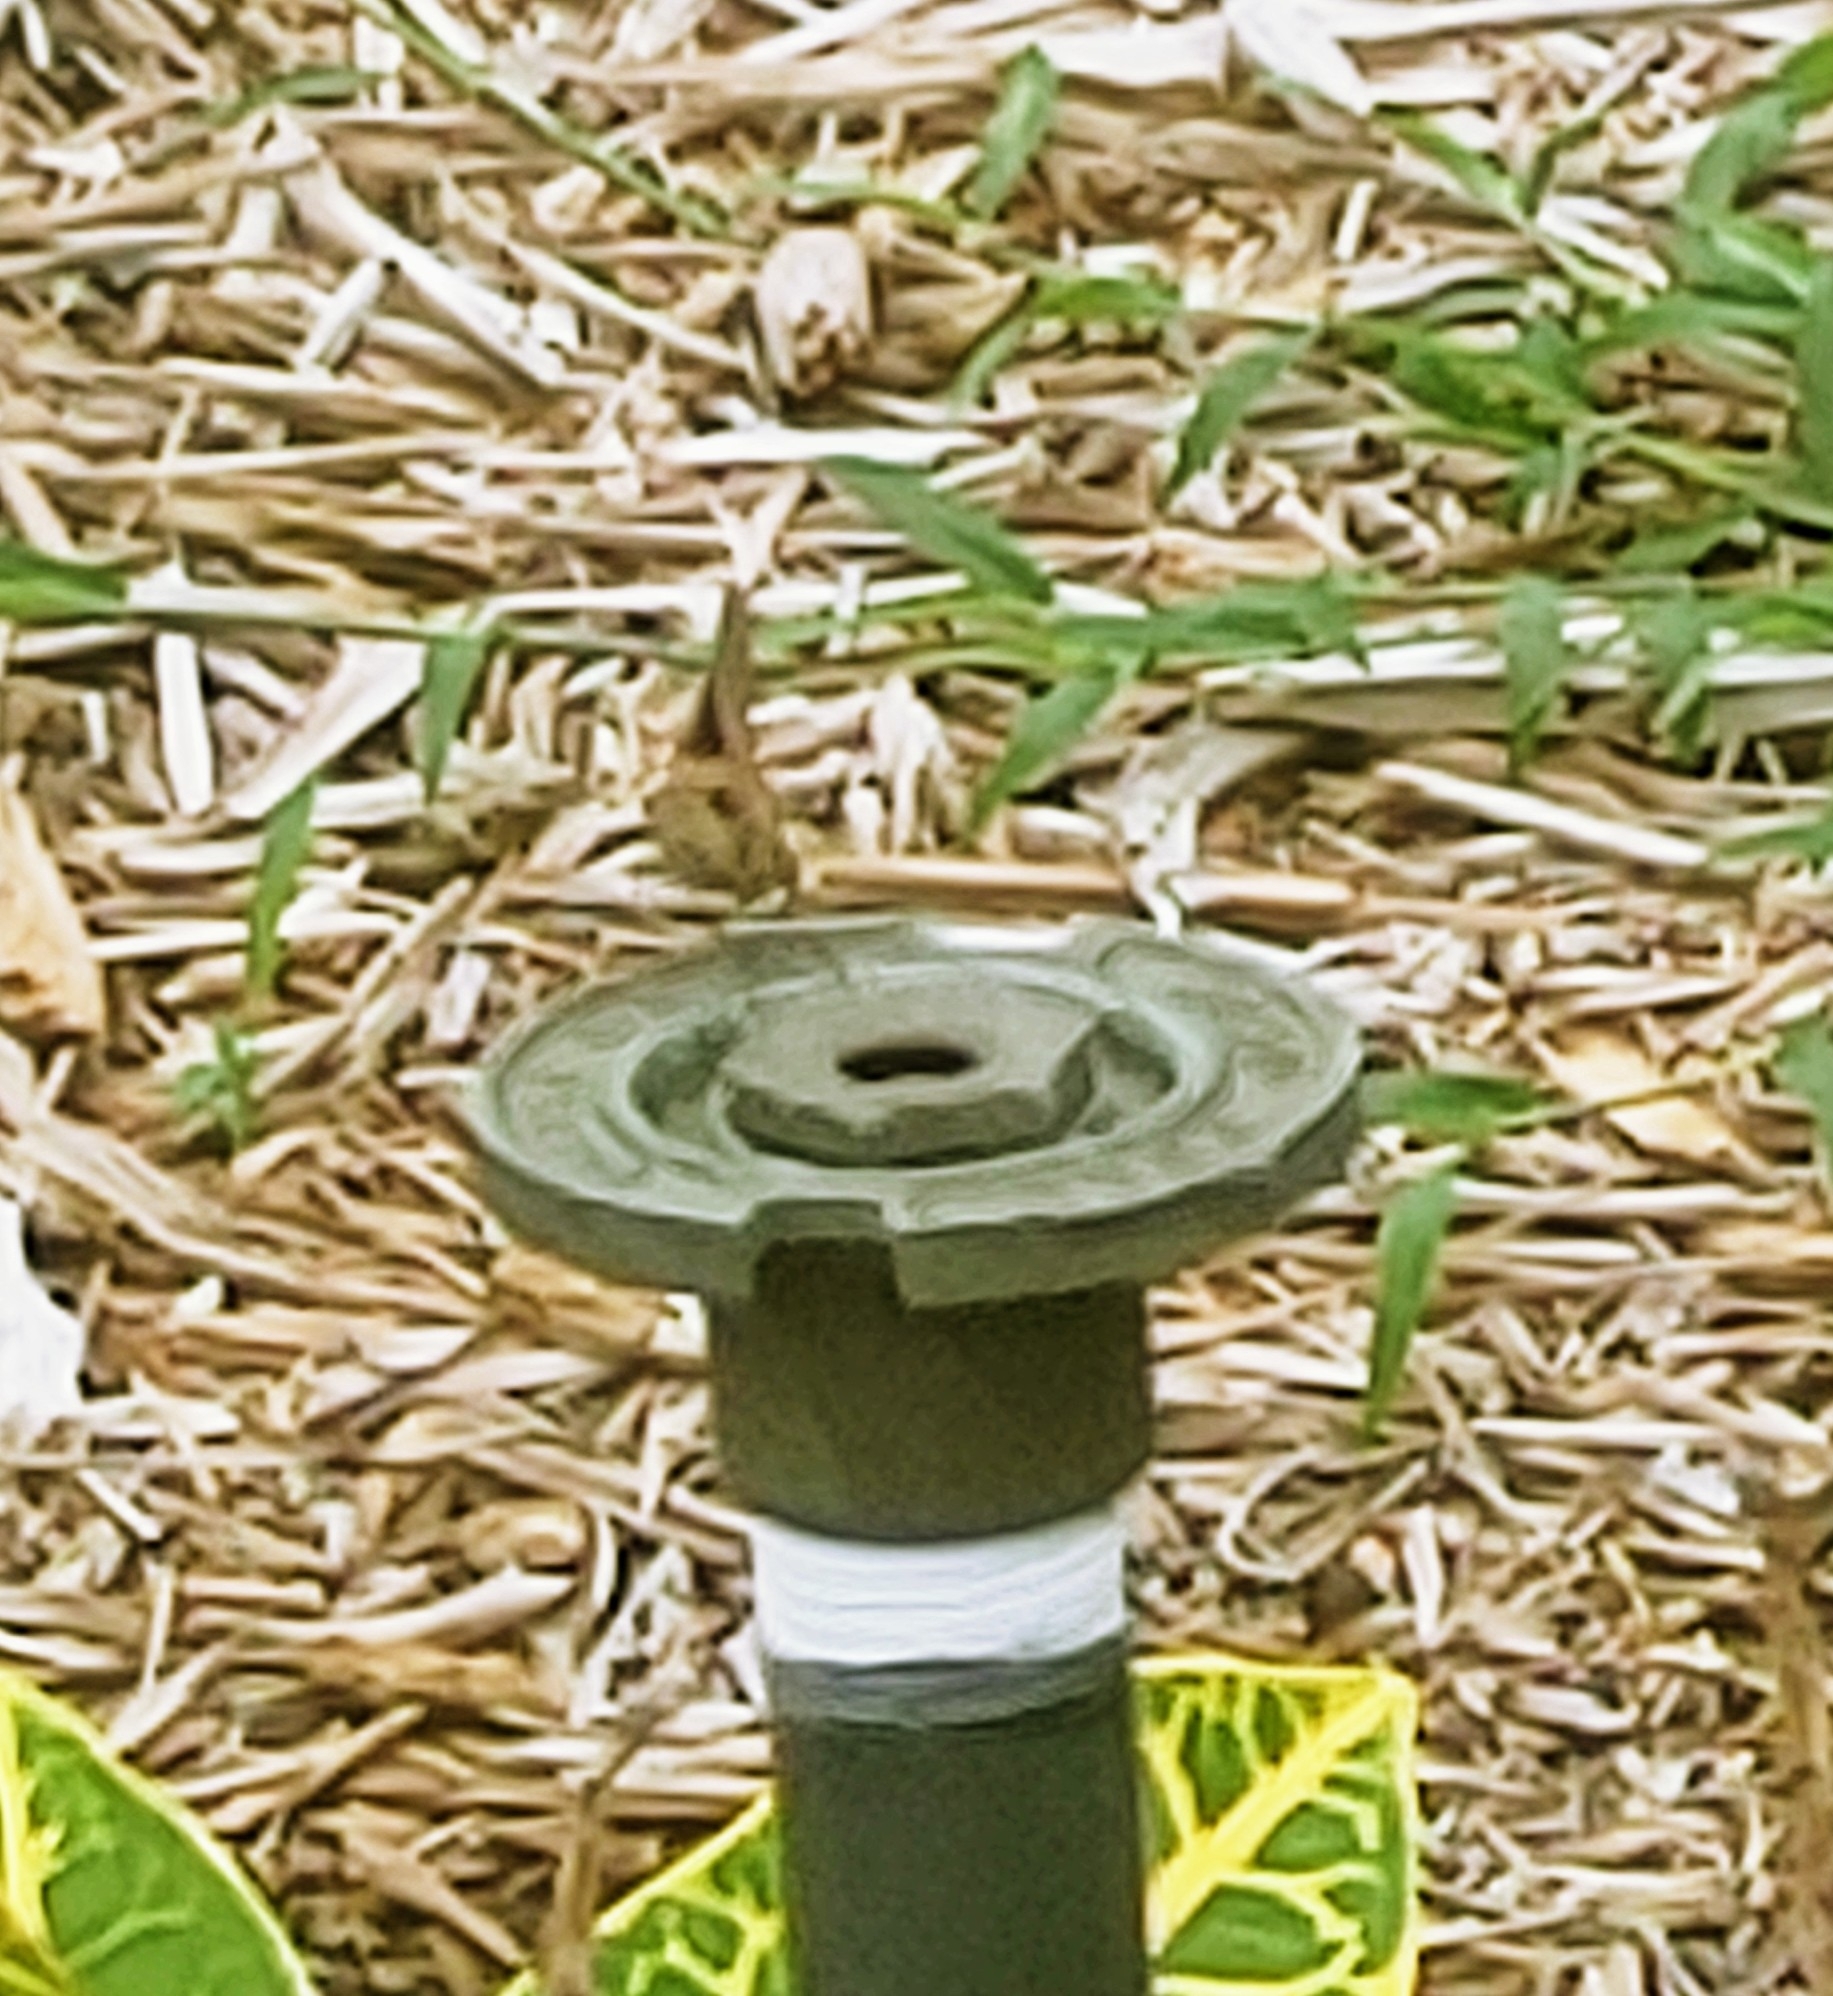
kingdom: Animalia
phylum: Arthropoda
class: Insecta
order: Lepidoptera
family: Hesperiidae
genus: Asbolis
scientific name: Asbolis capucinus
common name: Monk skipper
